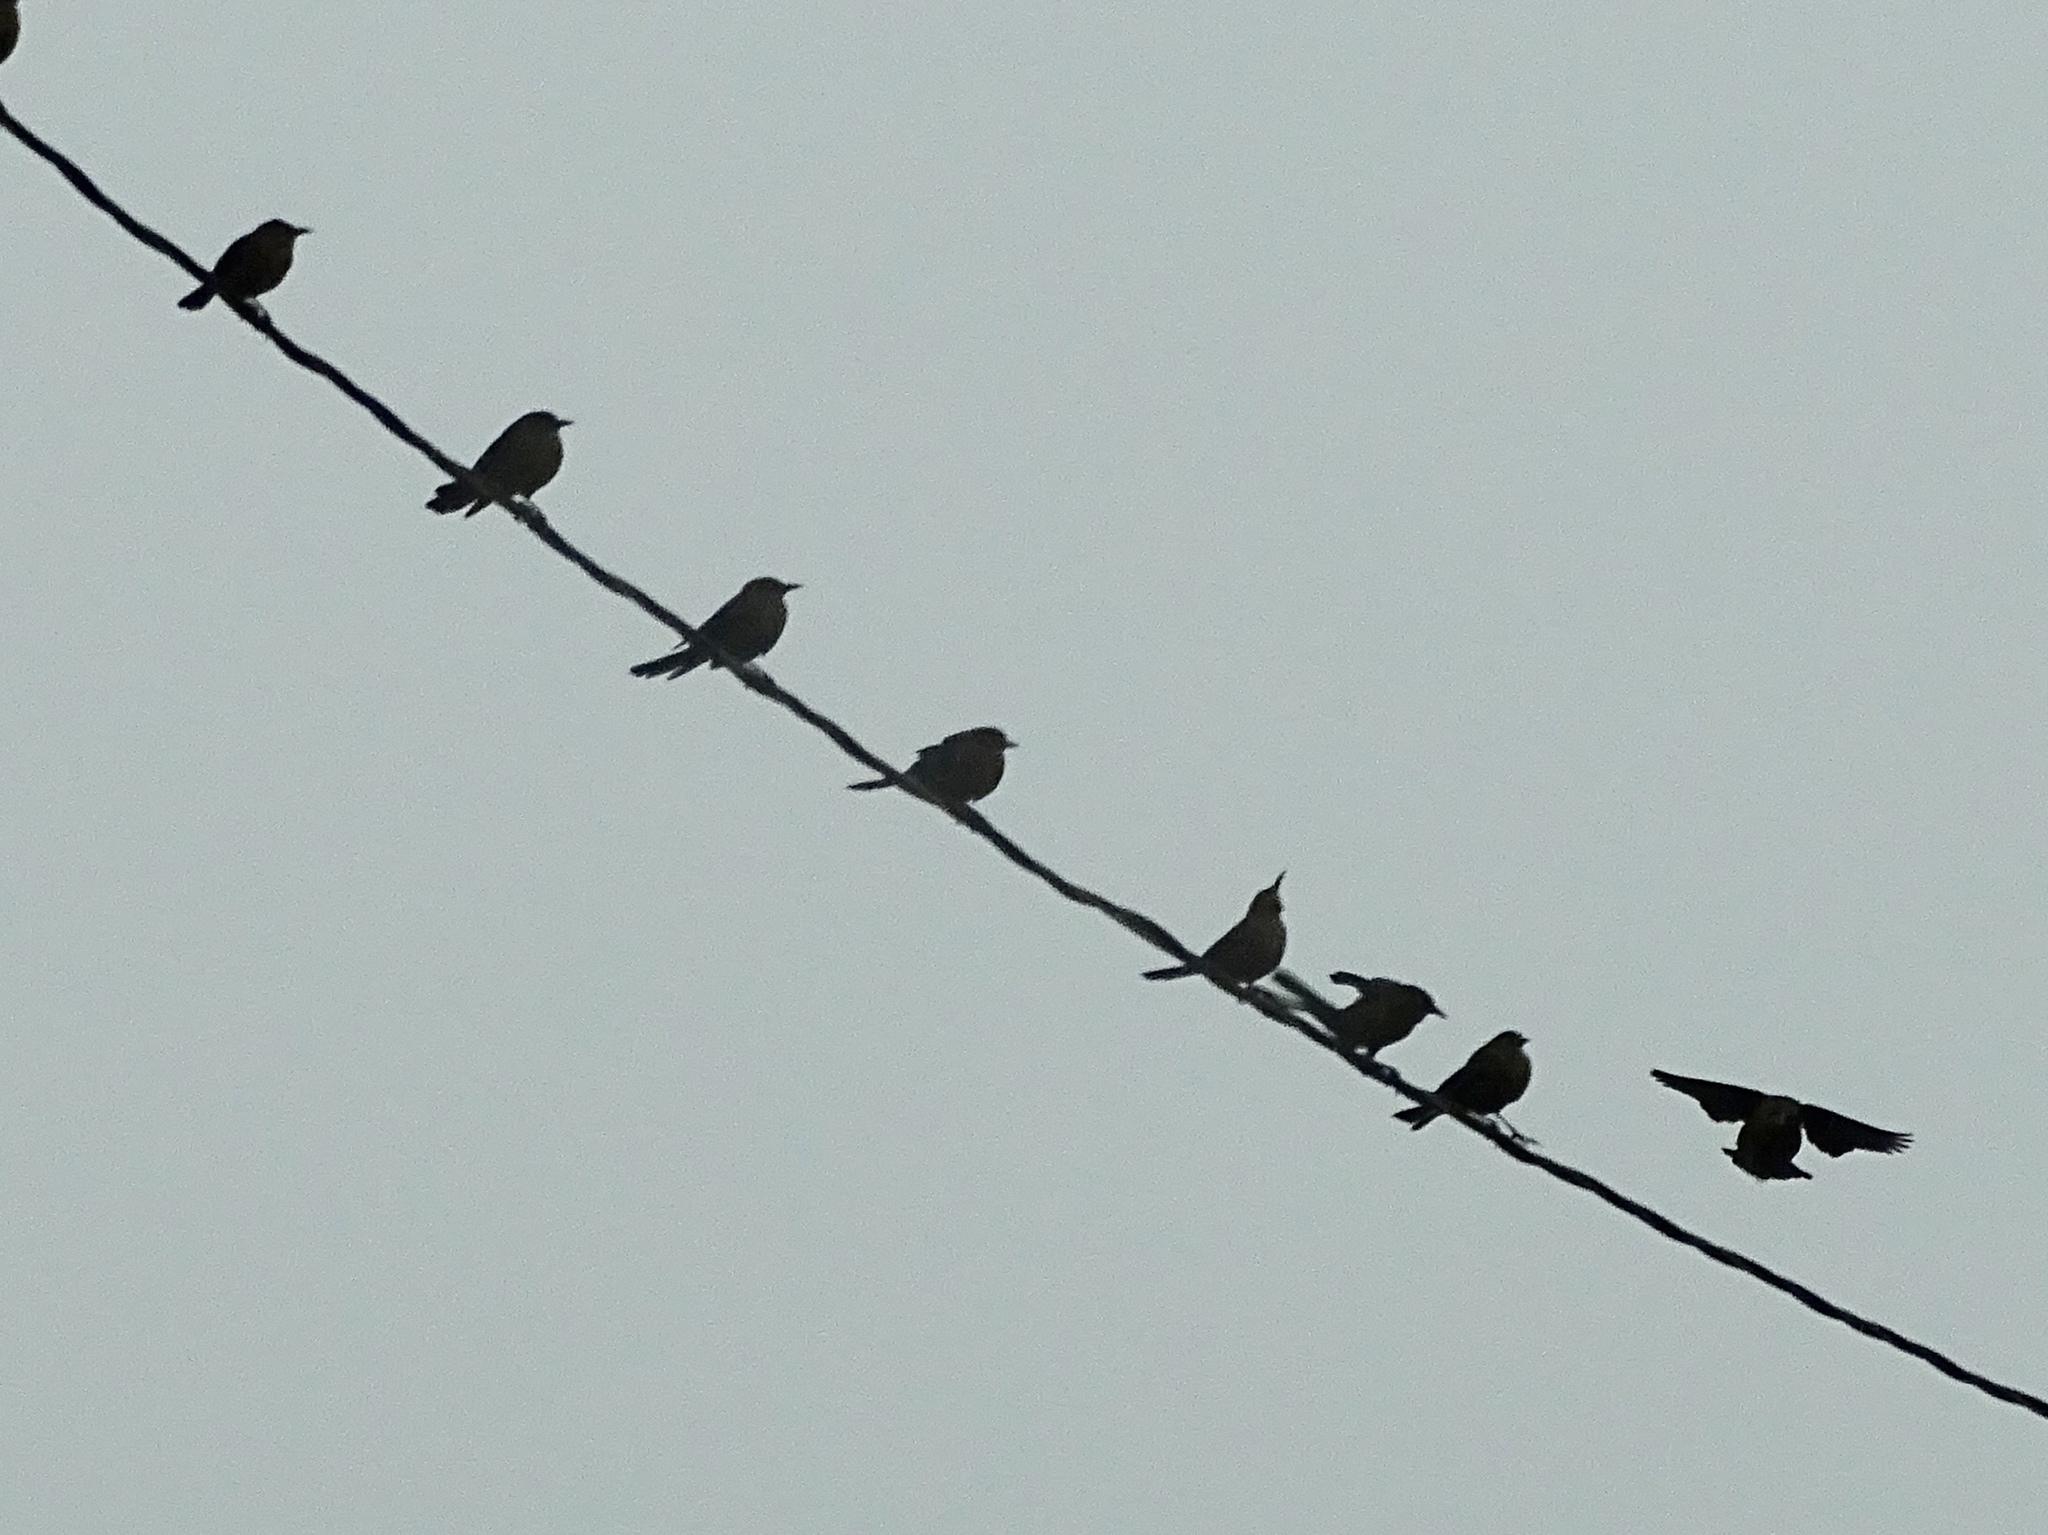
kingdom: Animalia
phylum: Chordata
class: Aves
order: Passeriformes
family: Icteridae
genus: Quiscalus
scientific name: Quiscalus mexicanus
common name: Great-tailed grackle
